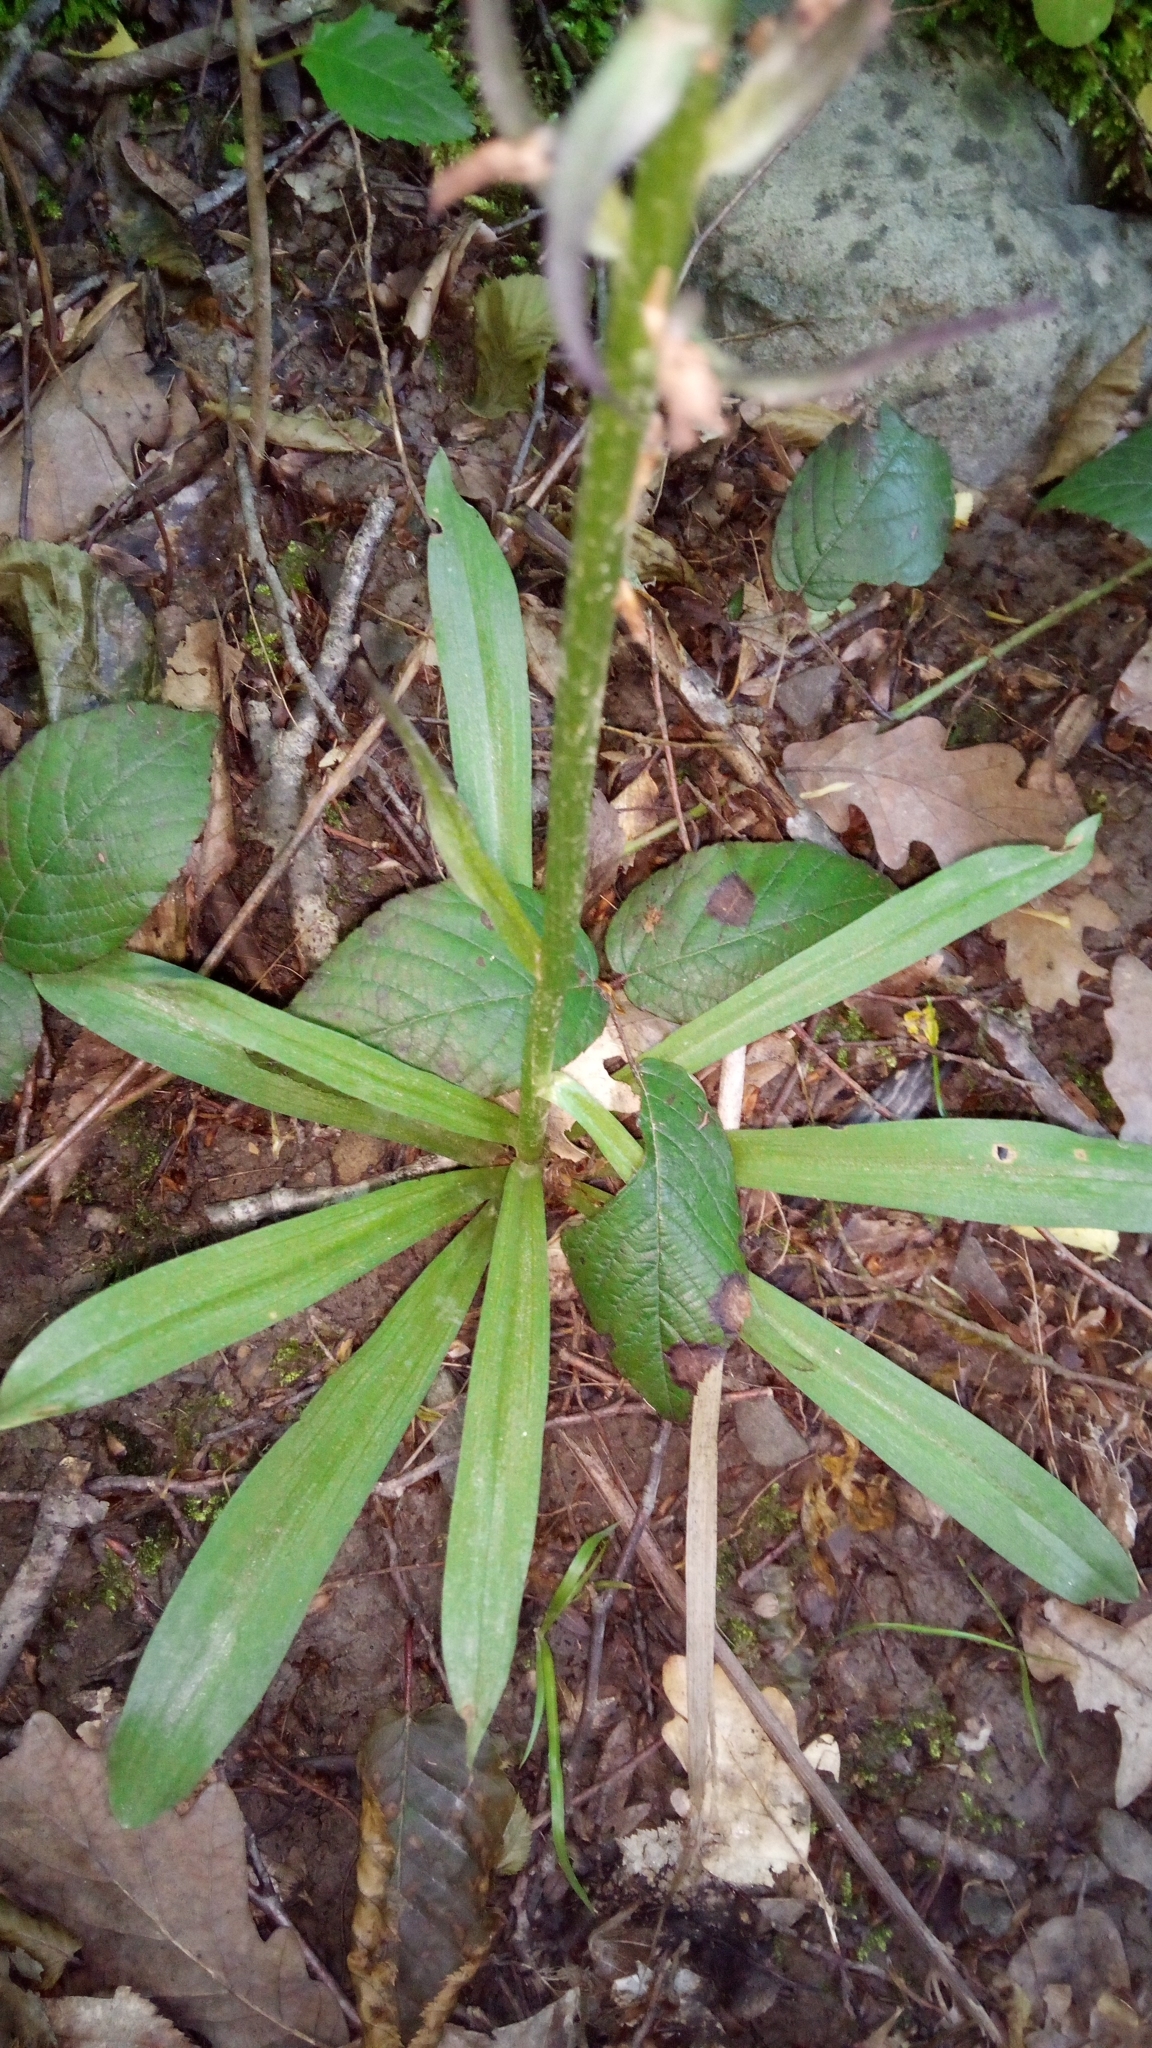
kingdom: Plantae
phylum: Tracheophyta
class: Liliopsida
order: Asparagales
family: Orchidaceae
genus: Dactylorhiza
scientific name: Dactylorhiza romana
